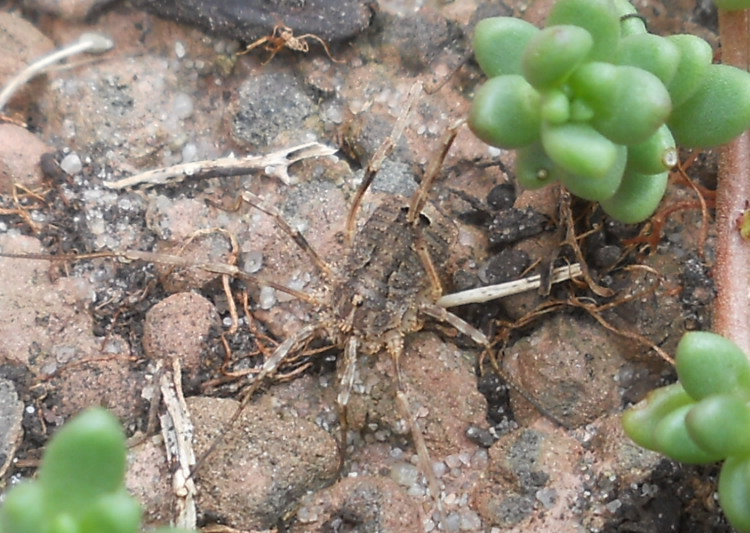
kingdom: Animalia
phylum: Arthropoda
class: Arachnida
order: Opiliones
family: Phalangiidae
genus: Odiellus
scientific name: Odiellus spinosus
